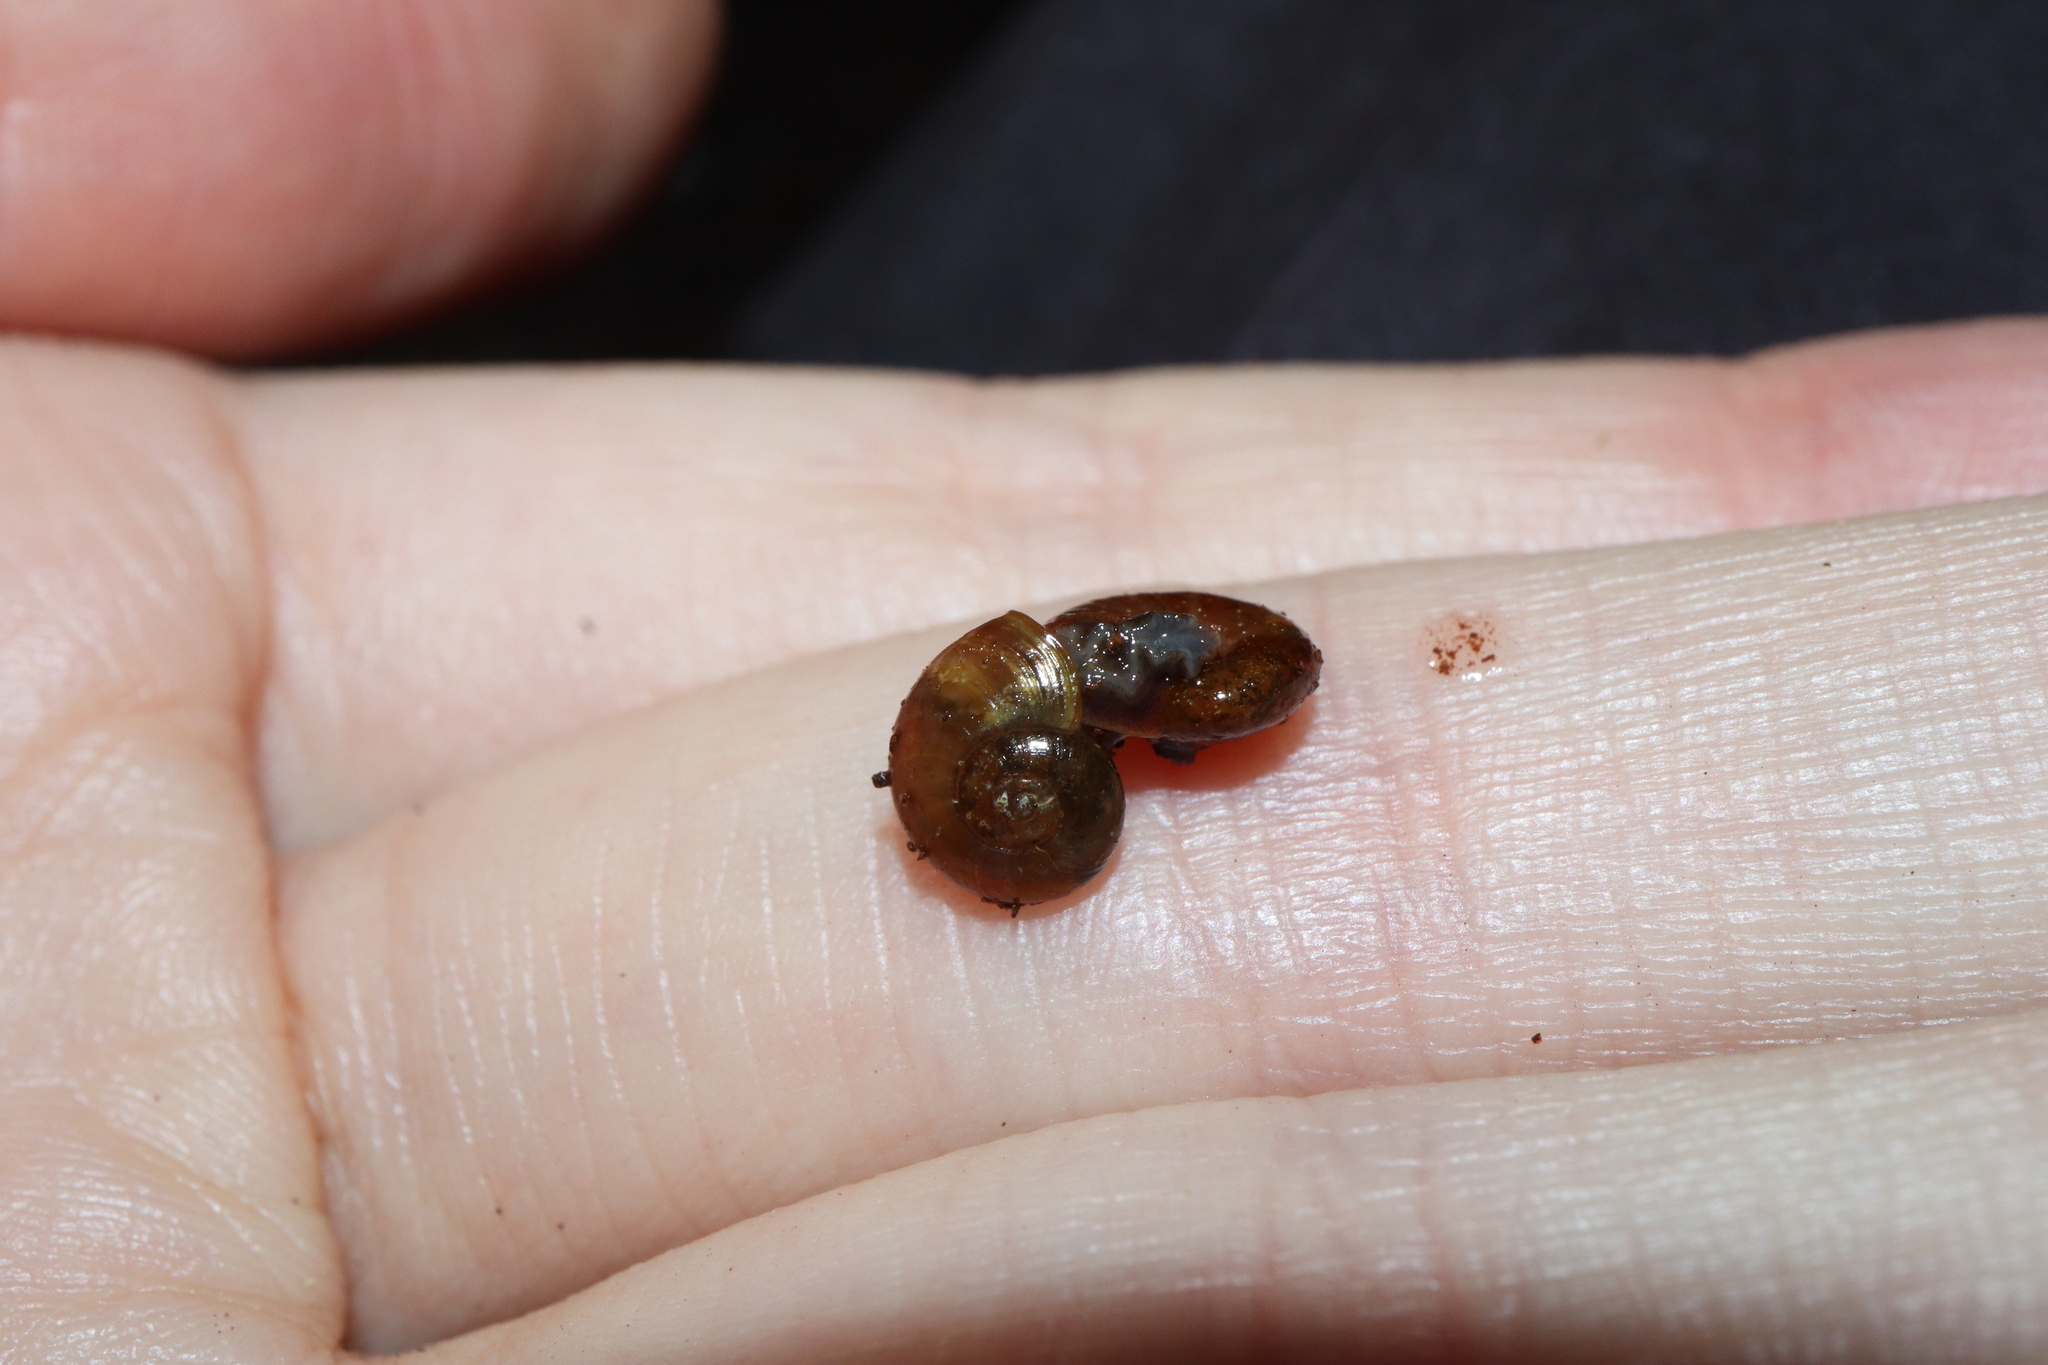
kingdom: Animalia
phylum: Mollusca
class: Gastropoda
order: Stylommatophora
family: Rhytididae
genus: Austrorhytida
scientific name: Austrorhytida harriettae
